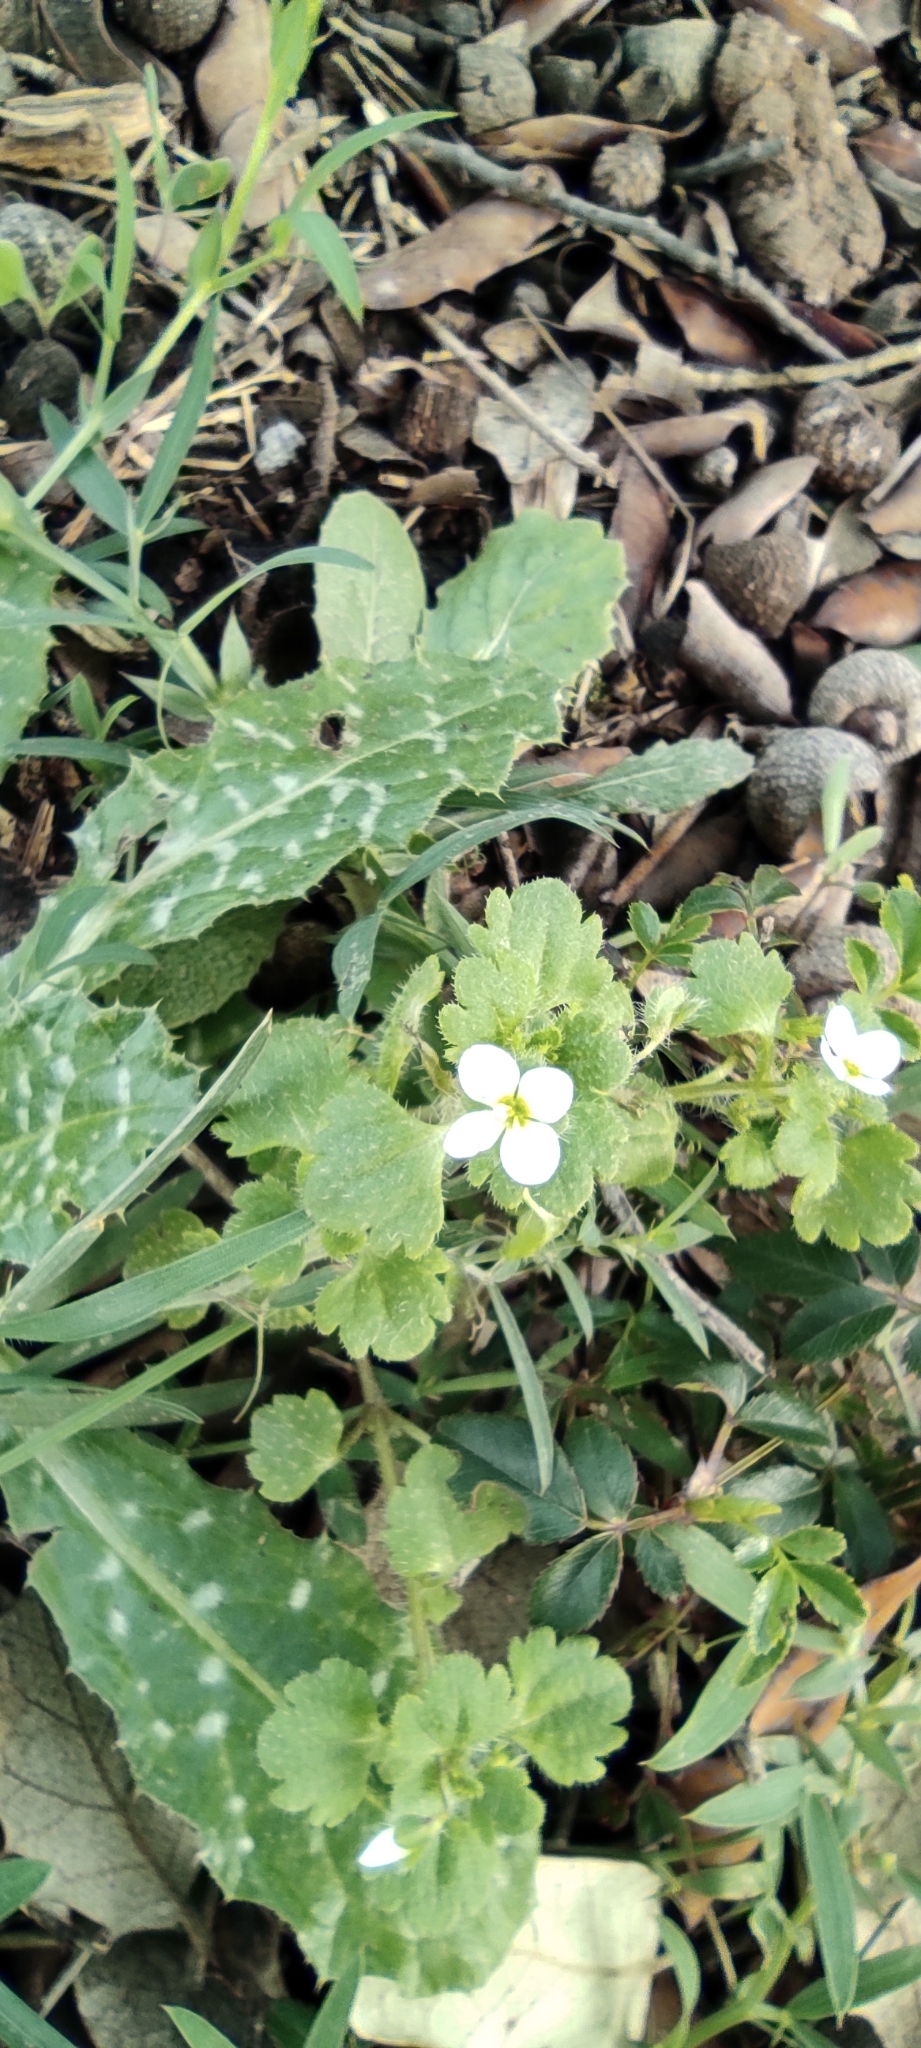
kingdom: Plantae
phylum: Tracheophyta
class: Magnoliopsida
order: Lamiales
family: Plantaginaceae
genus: Veronica
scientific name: Veronica cymbalaria
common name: Pale speedwell
